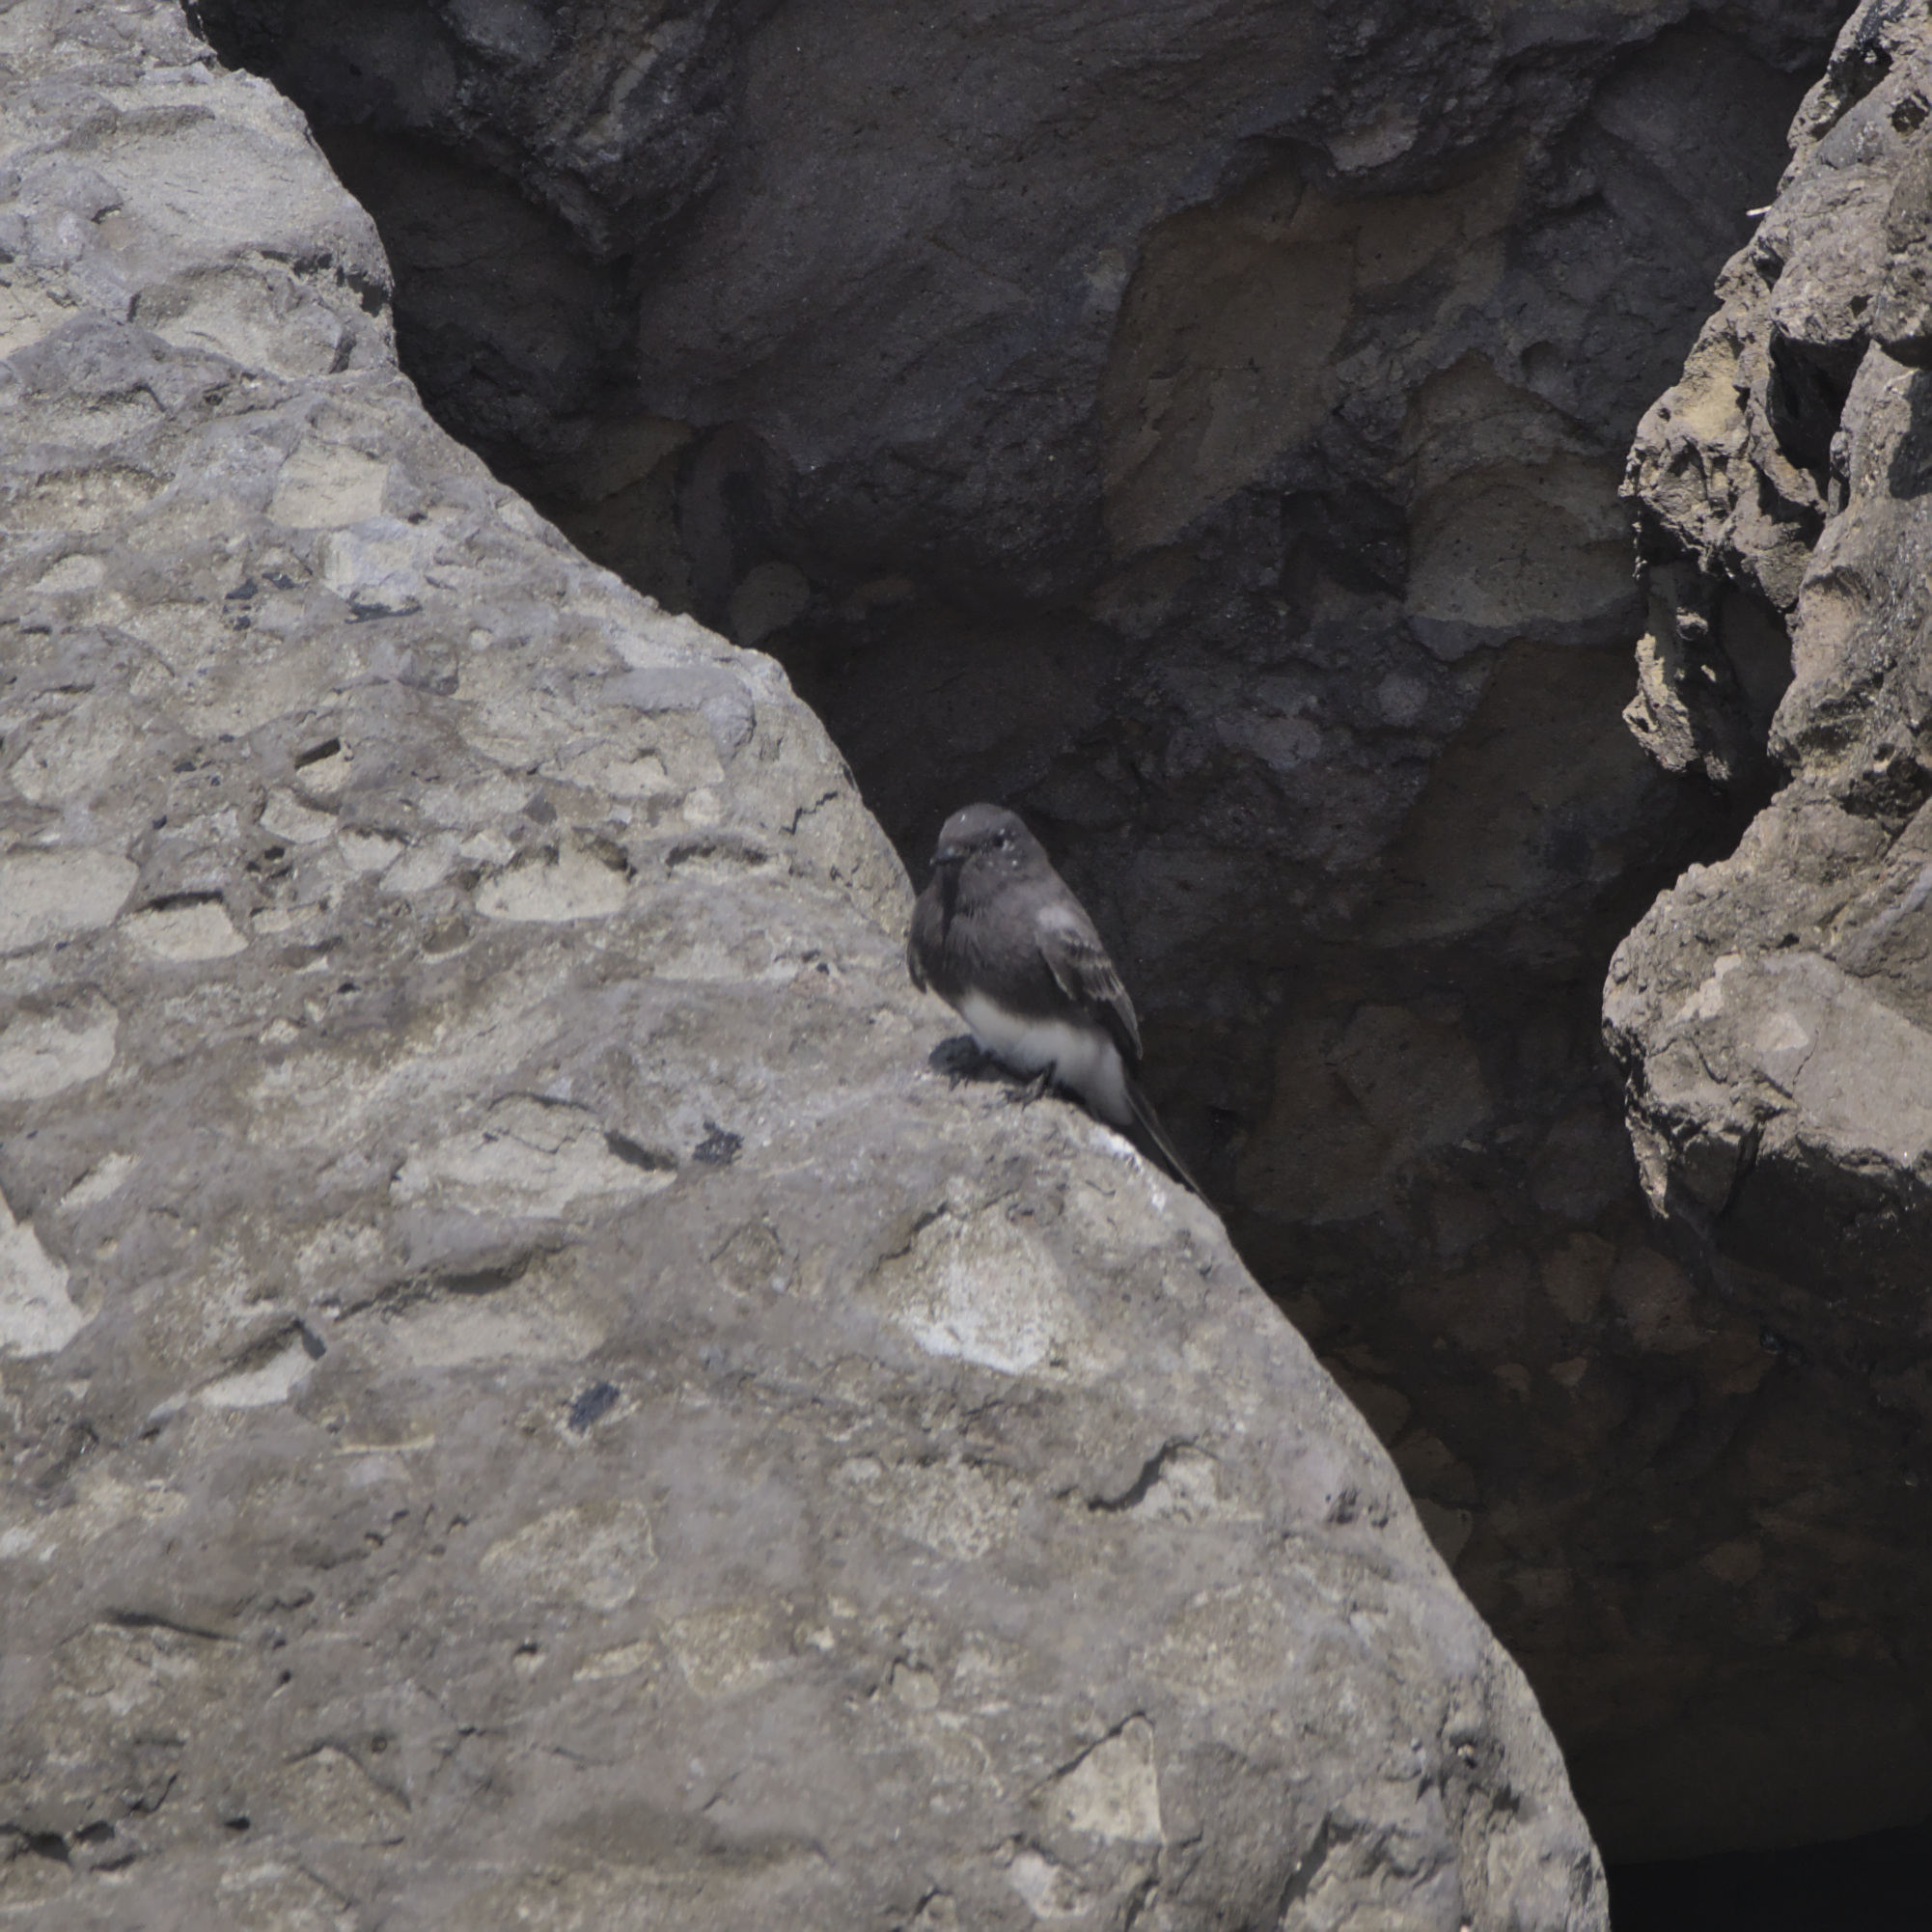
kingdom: Animalia
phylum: Chordata
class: Aves
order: Passeriformes
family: Tyrannidae
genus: Sayornis
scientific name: Sayornis nigricans
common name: Black phoebe
